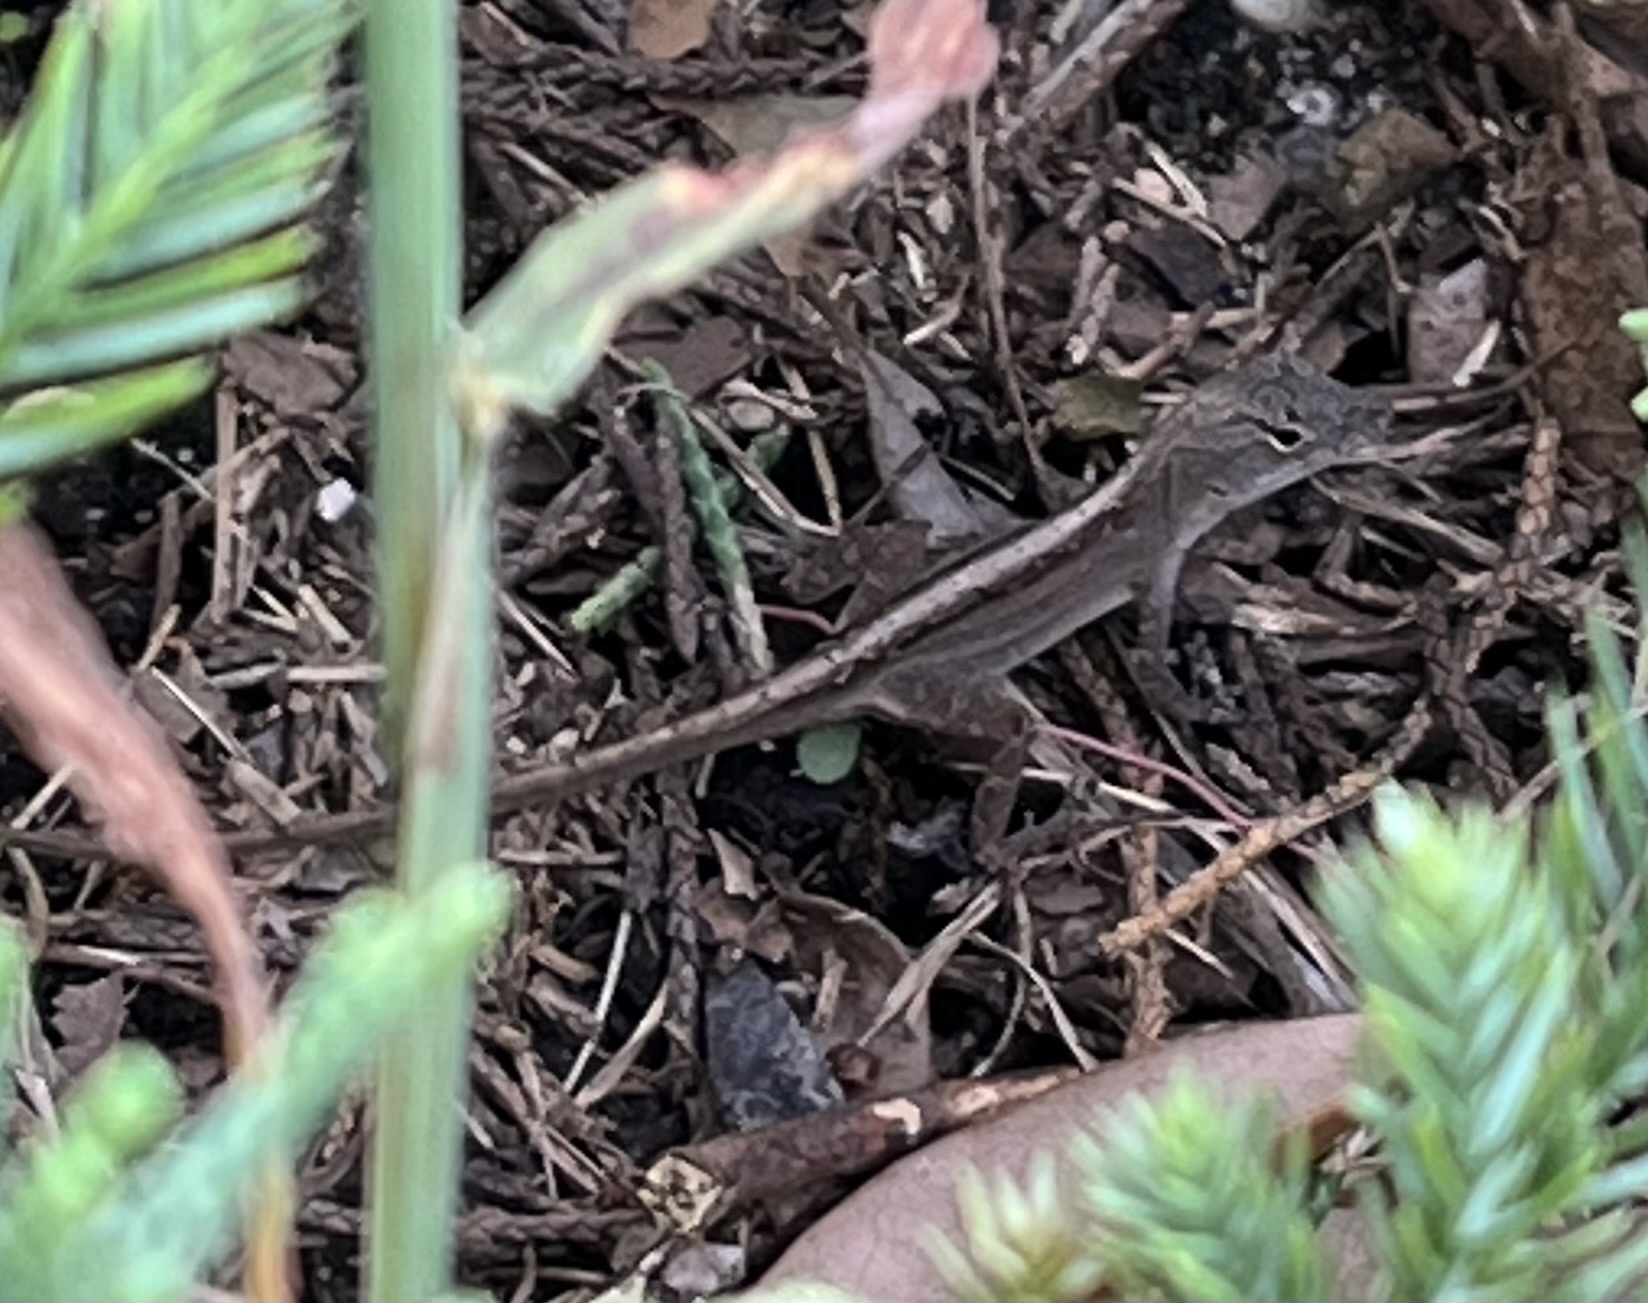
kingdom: Animalia
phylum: Chordata
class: Squamata
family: Dactyloidae
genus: Anolis
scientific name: Anolis sagrei
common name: Brown anole
